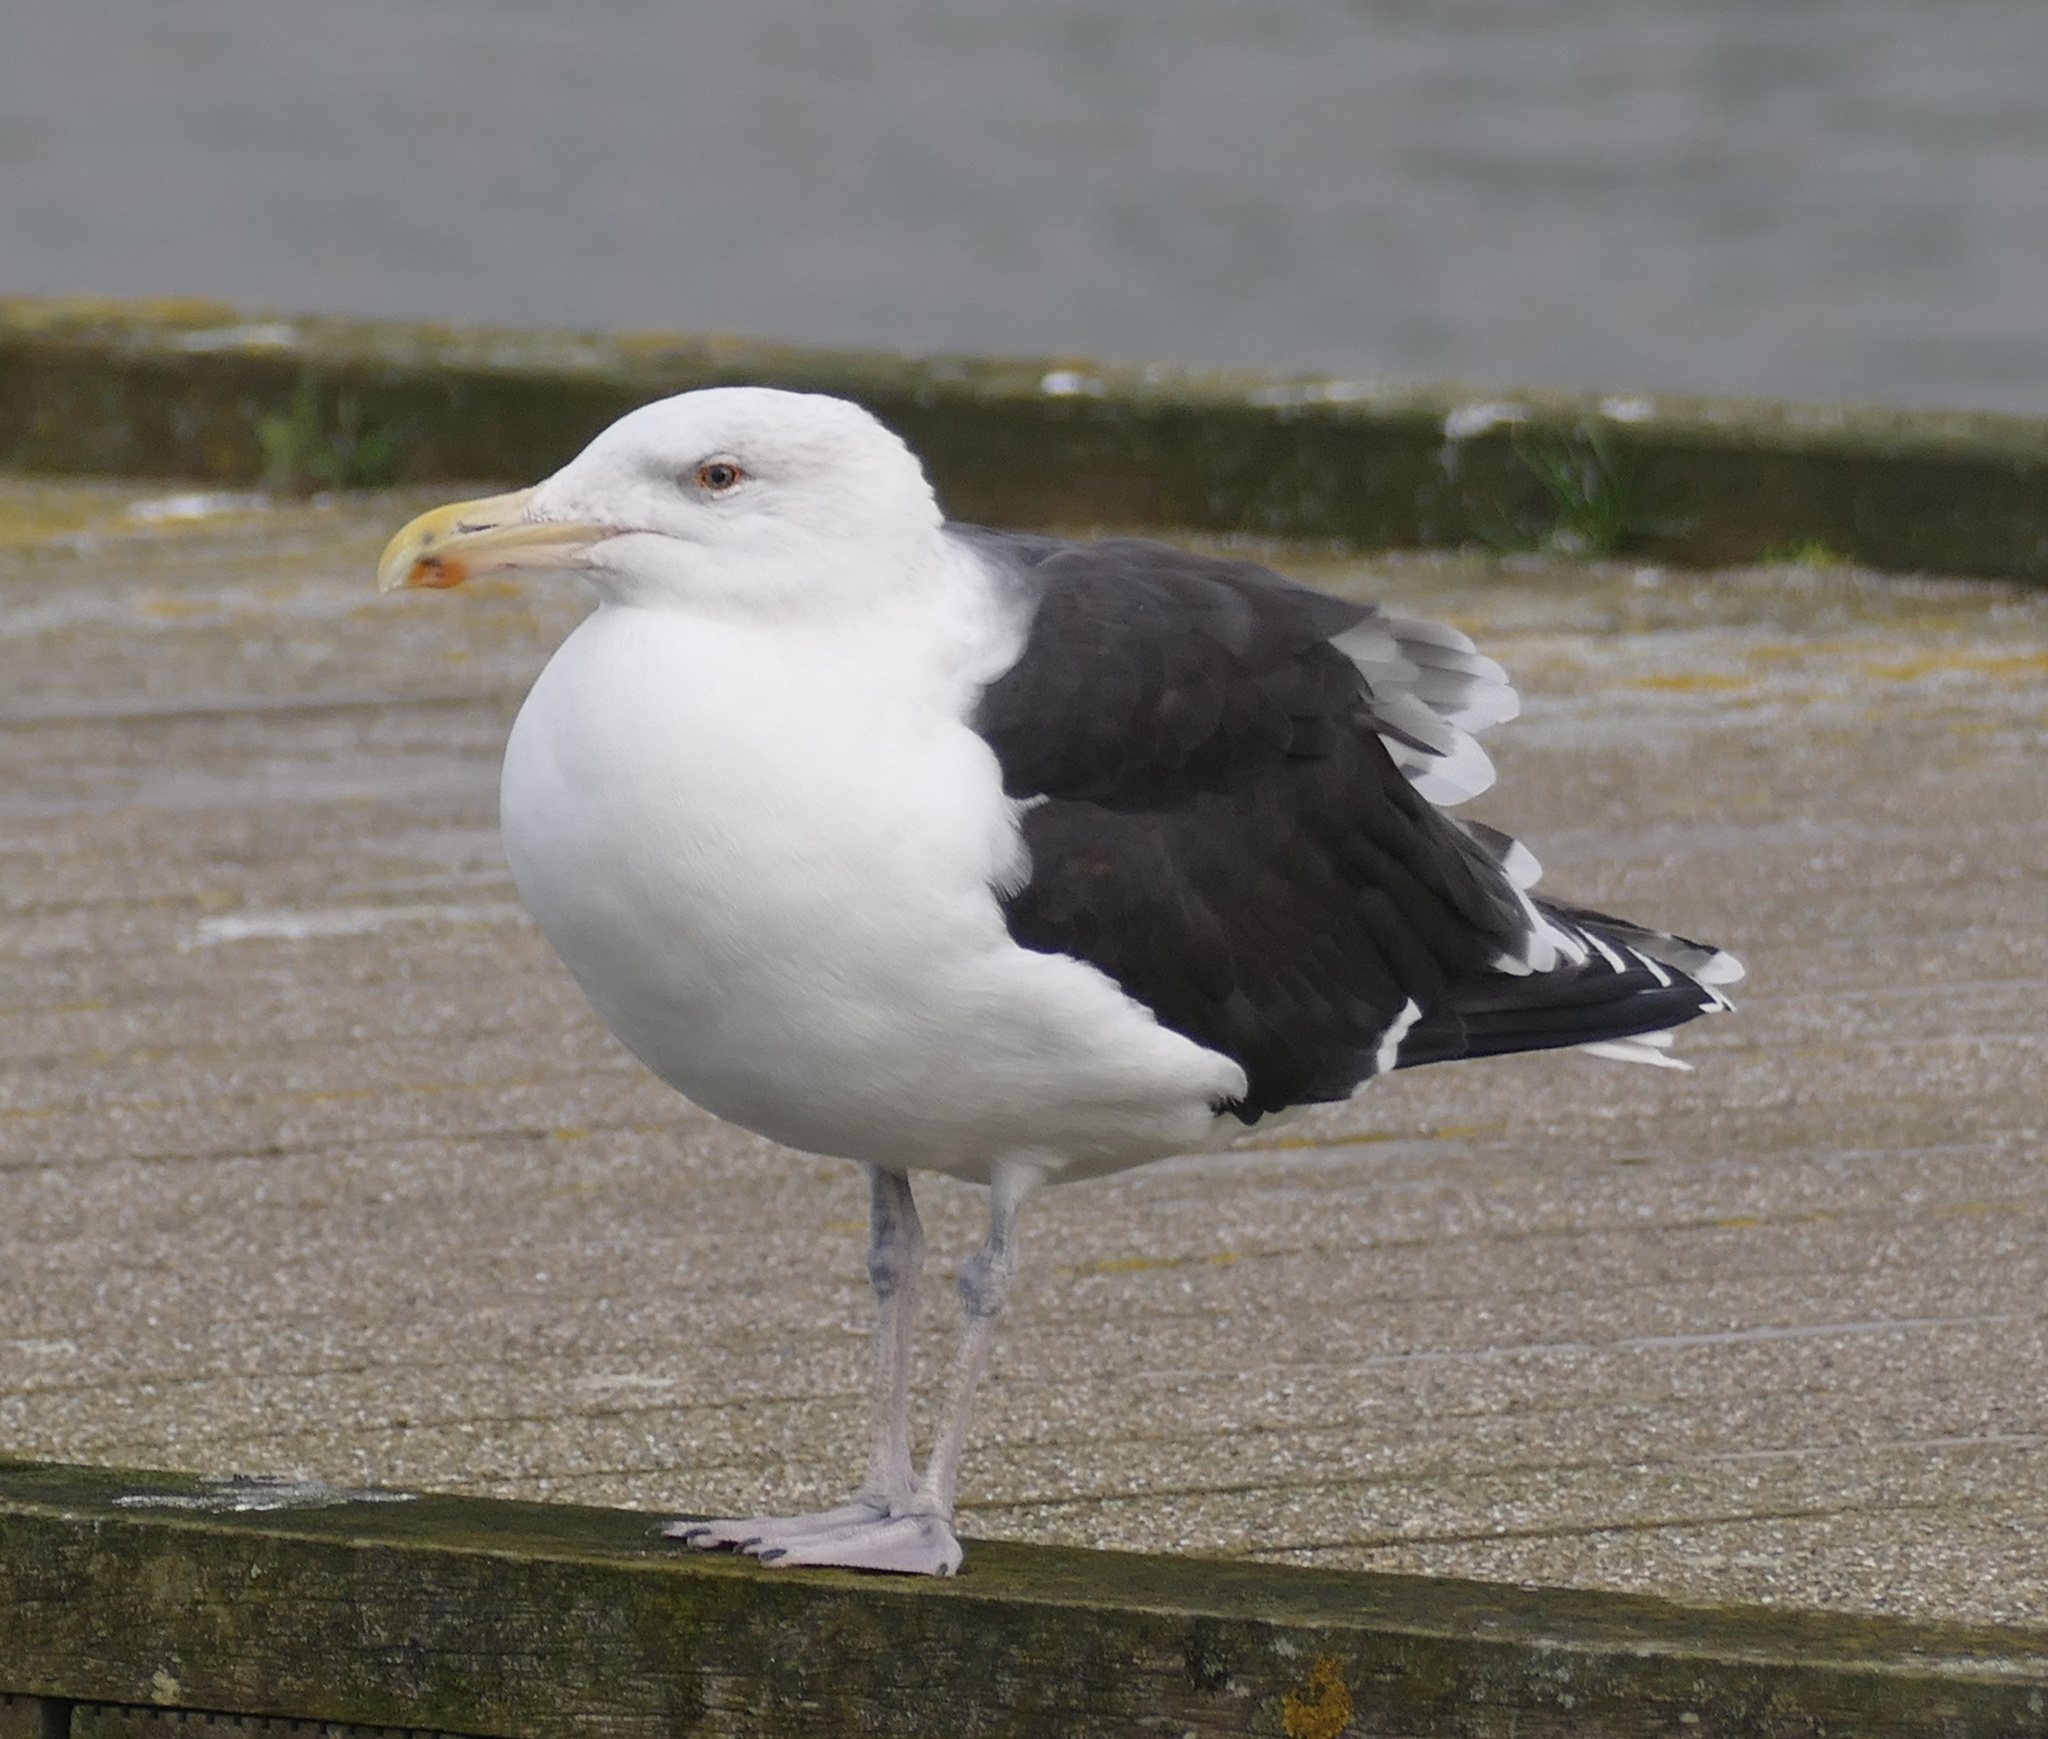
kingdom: Animalia
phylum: Chordata
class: Aves
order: Charadriiformes
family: Laridae
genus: Larus
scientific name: Larus marinus
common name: Great black-backed gull
